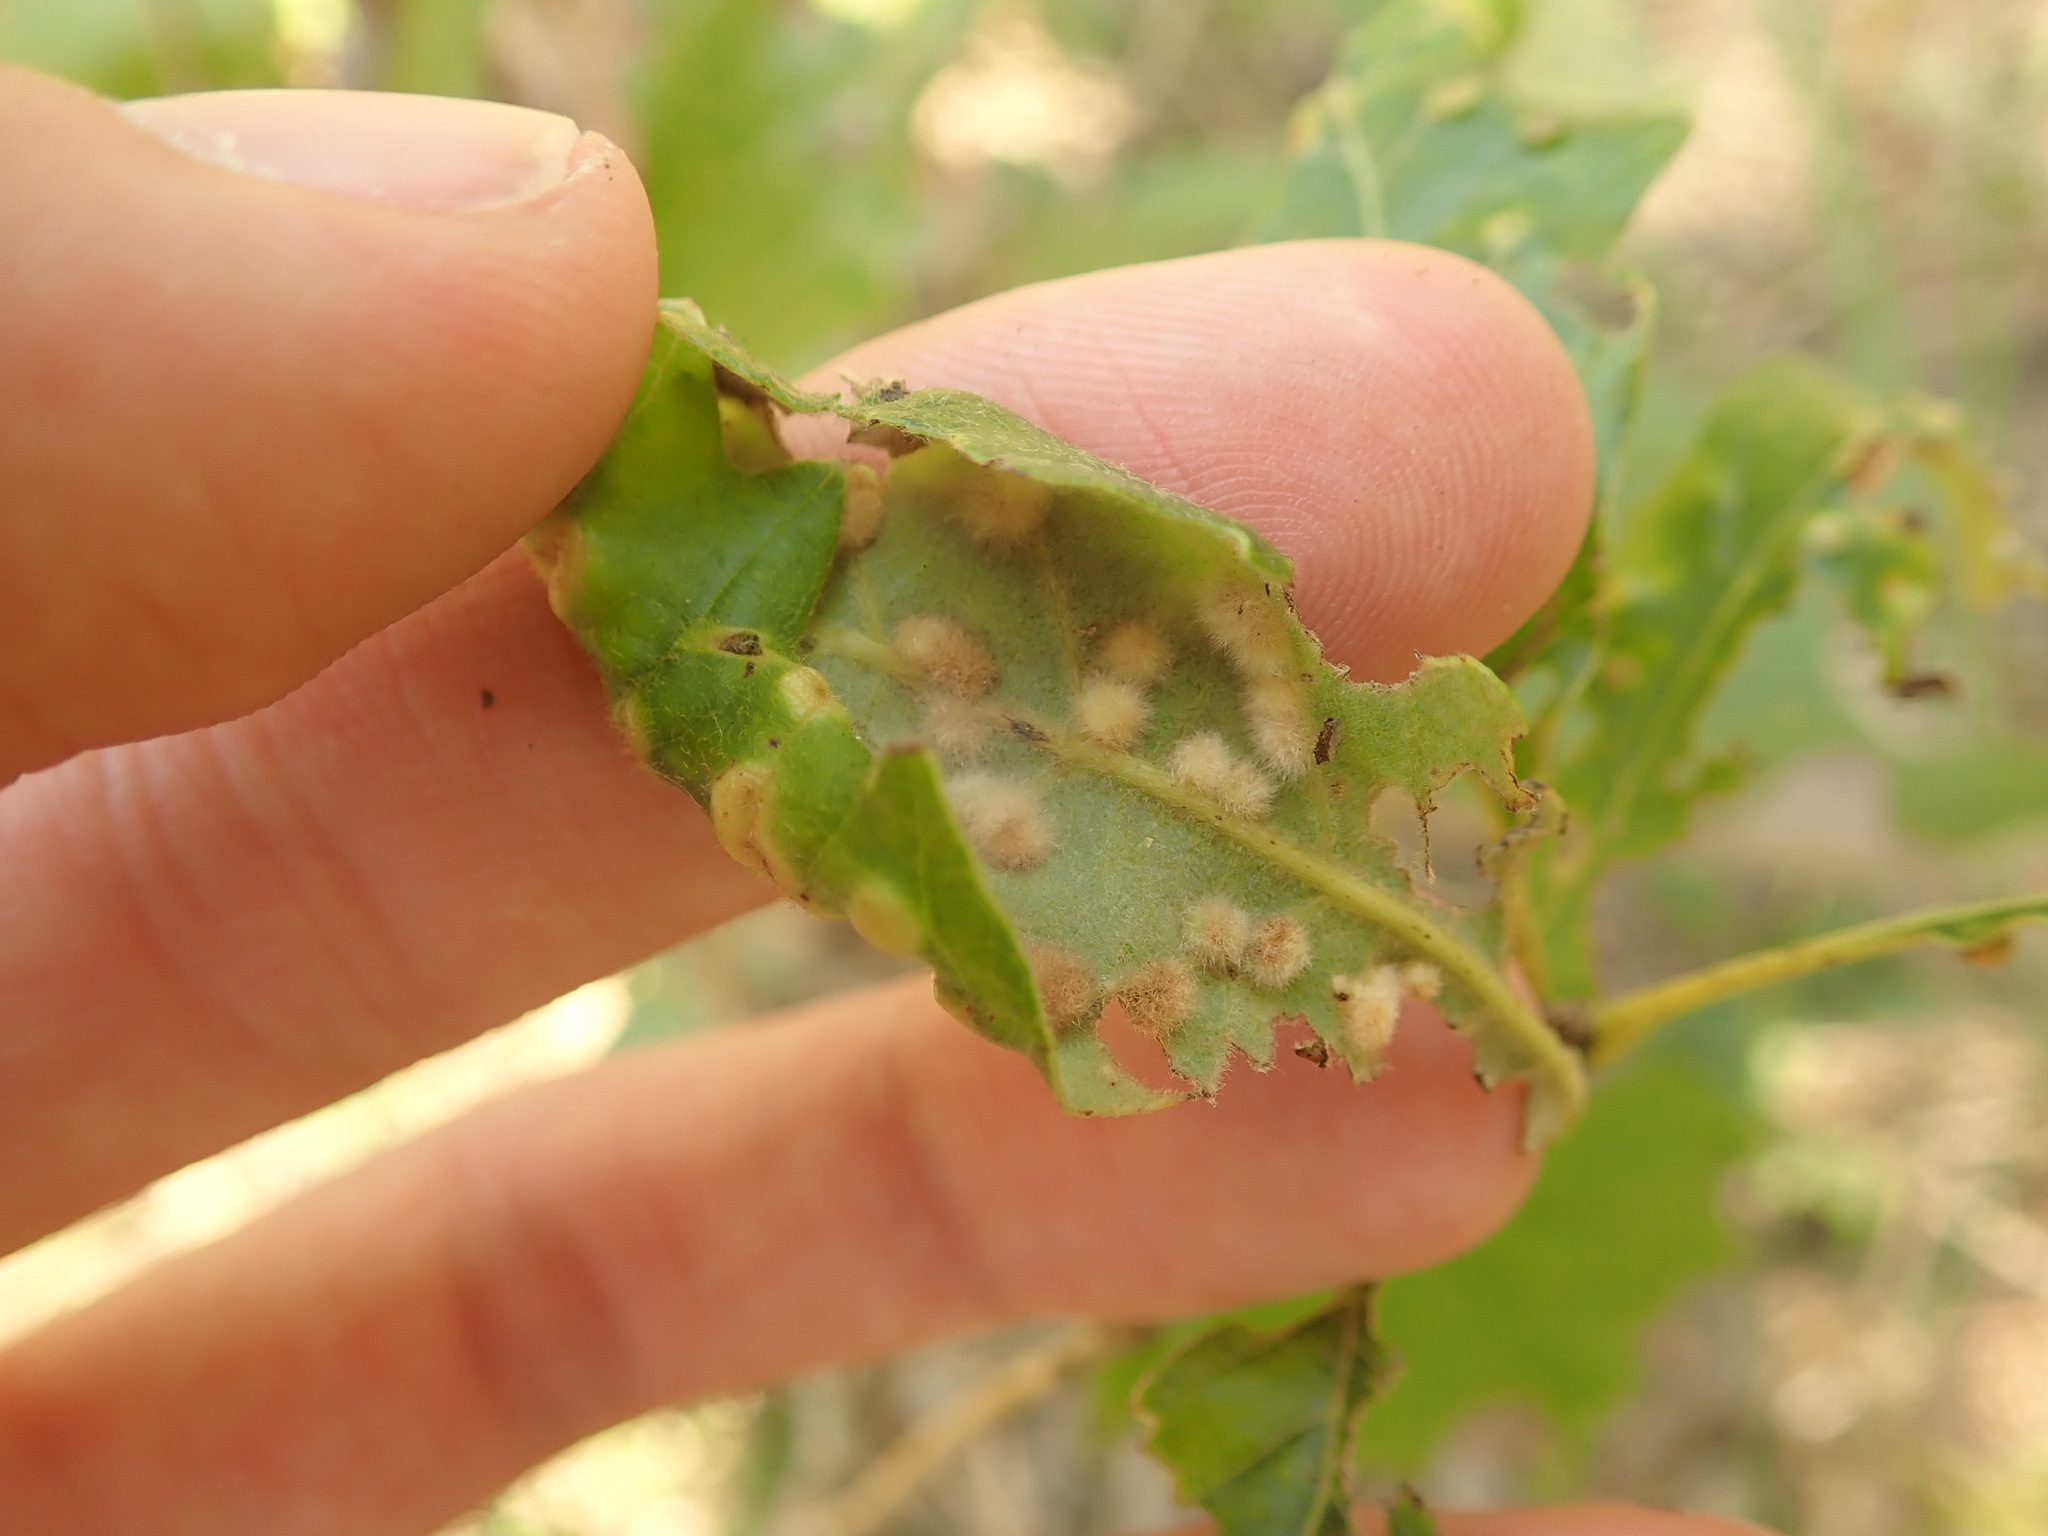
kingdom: Animalia
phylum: Arthropoda
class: Insecta
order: Hymenoptera
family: Cynipidae
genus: Neuroterus
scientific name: Neuroterus quercusverrucarum
